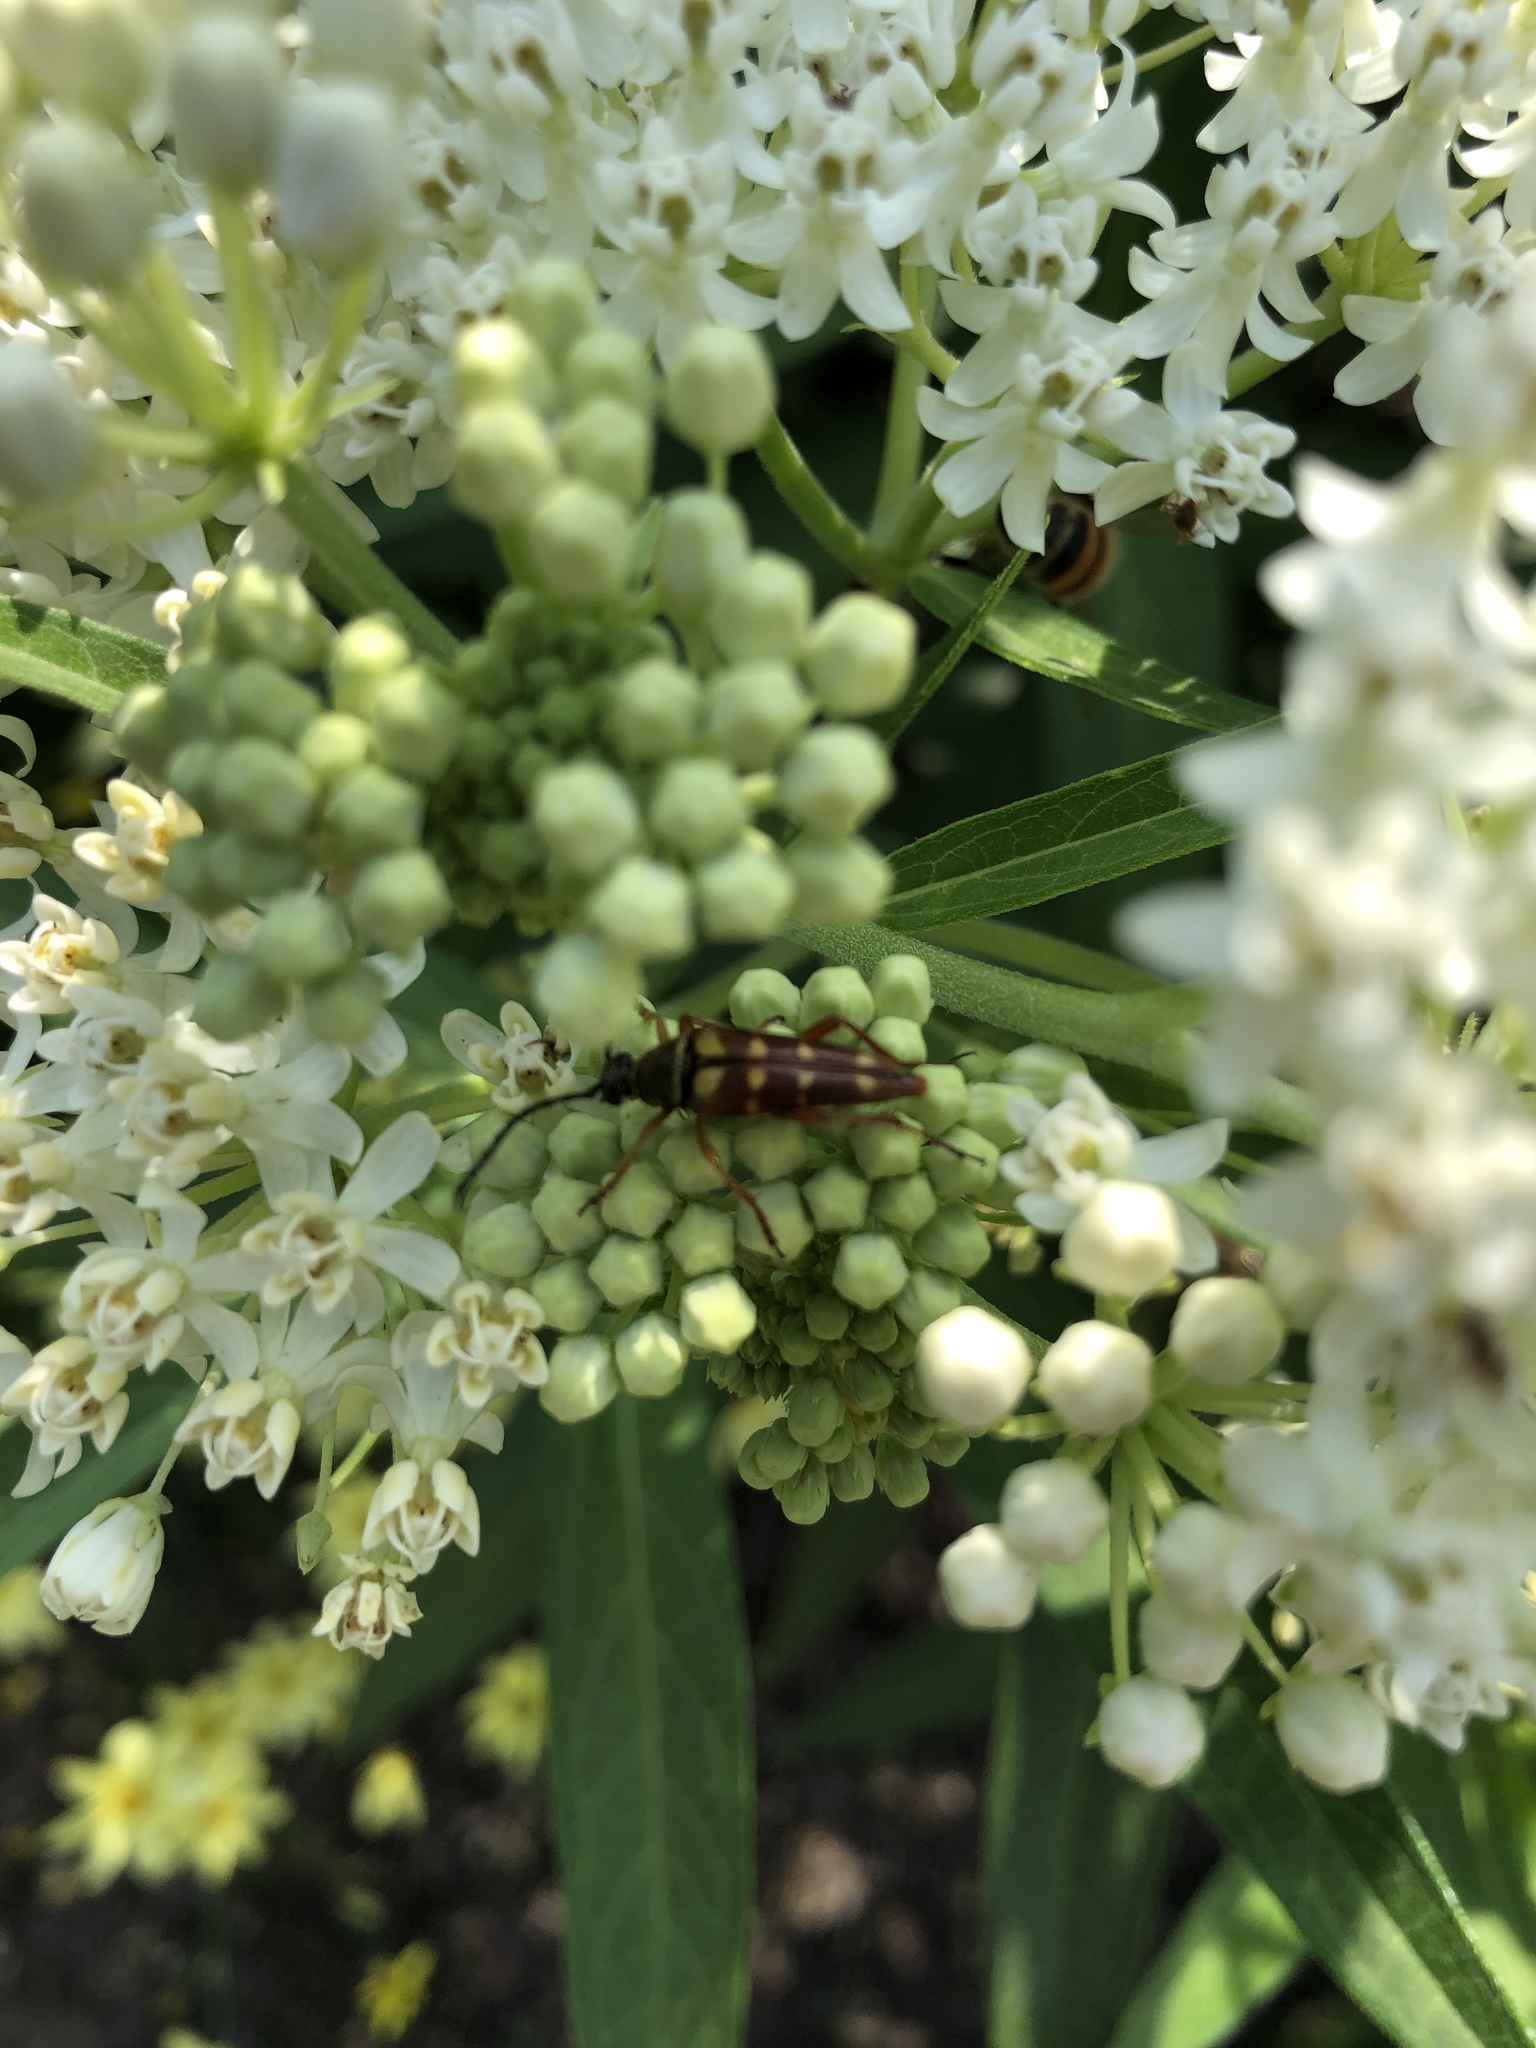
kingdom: Animalia
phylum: Arthropoda
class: Insecta
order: Coleoptera
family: Cerambycidae
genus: Typocerus
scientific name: Typocerus velutinus
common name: Banded longhorn beetle
